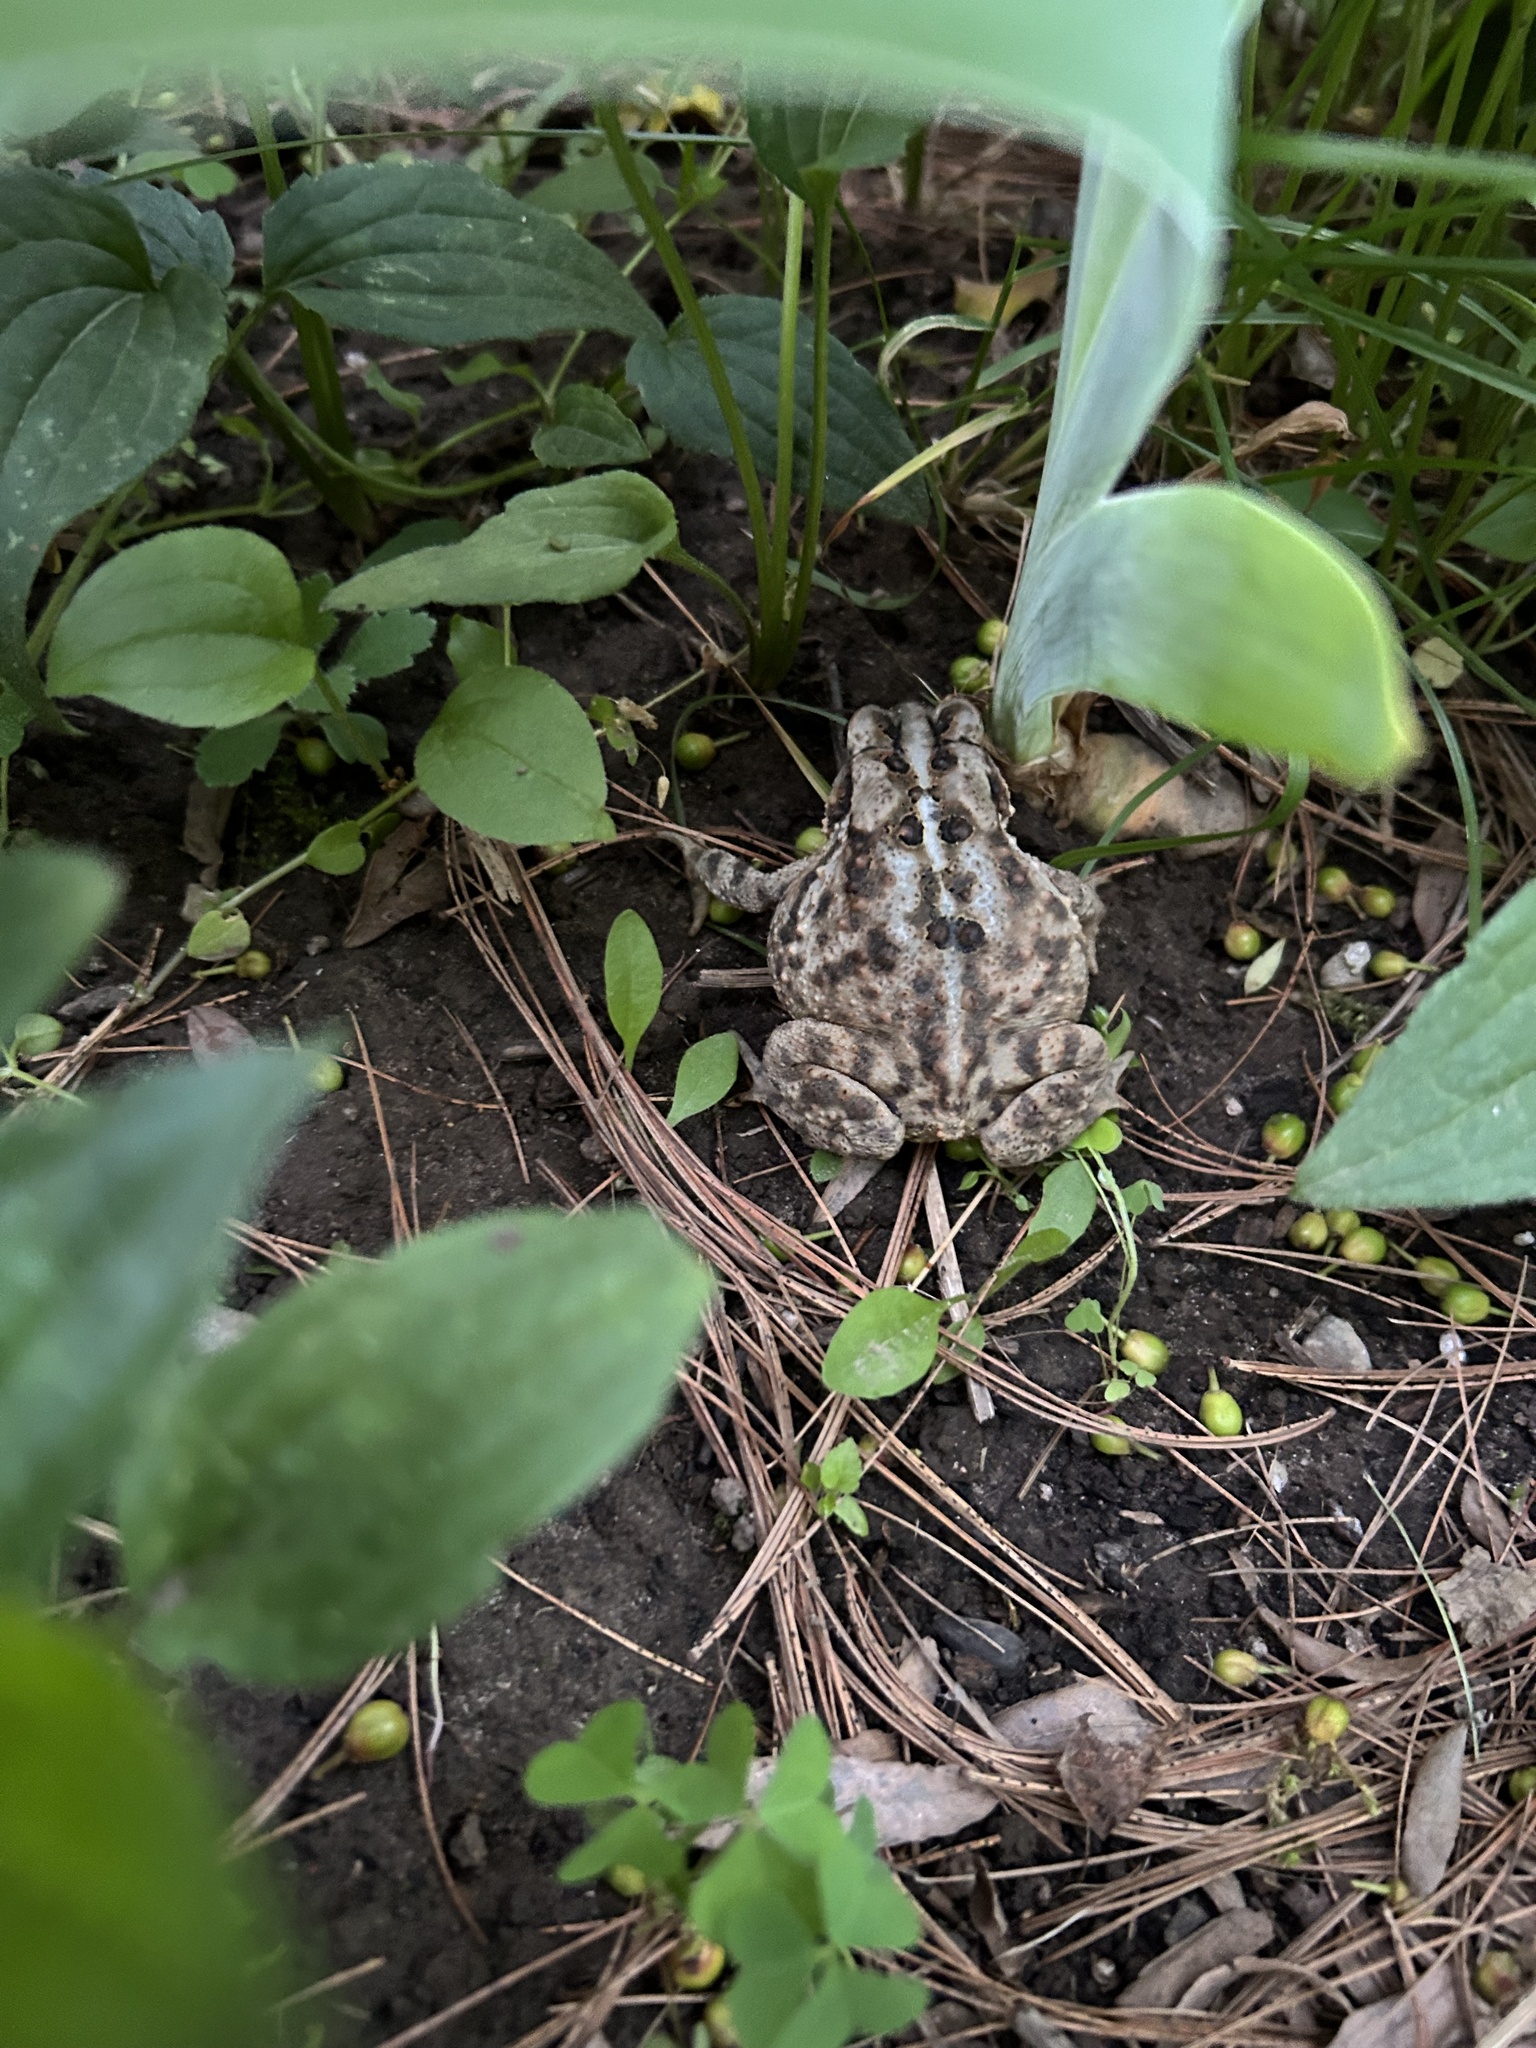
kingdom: Animalia
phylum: Chordata
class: Amphibia
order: Anura
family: Bufonidae
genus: Anaxyrus
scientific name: Anaxyrus americanus
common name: American toad
